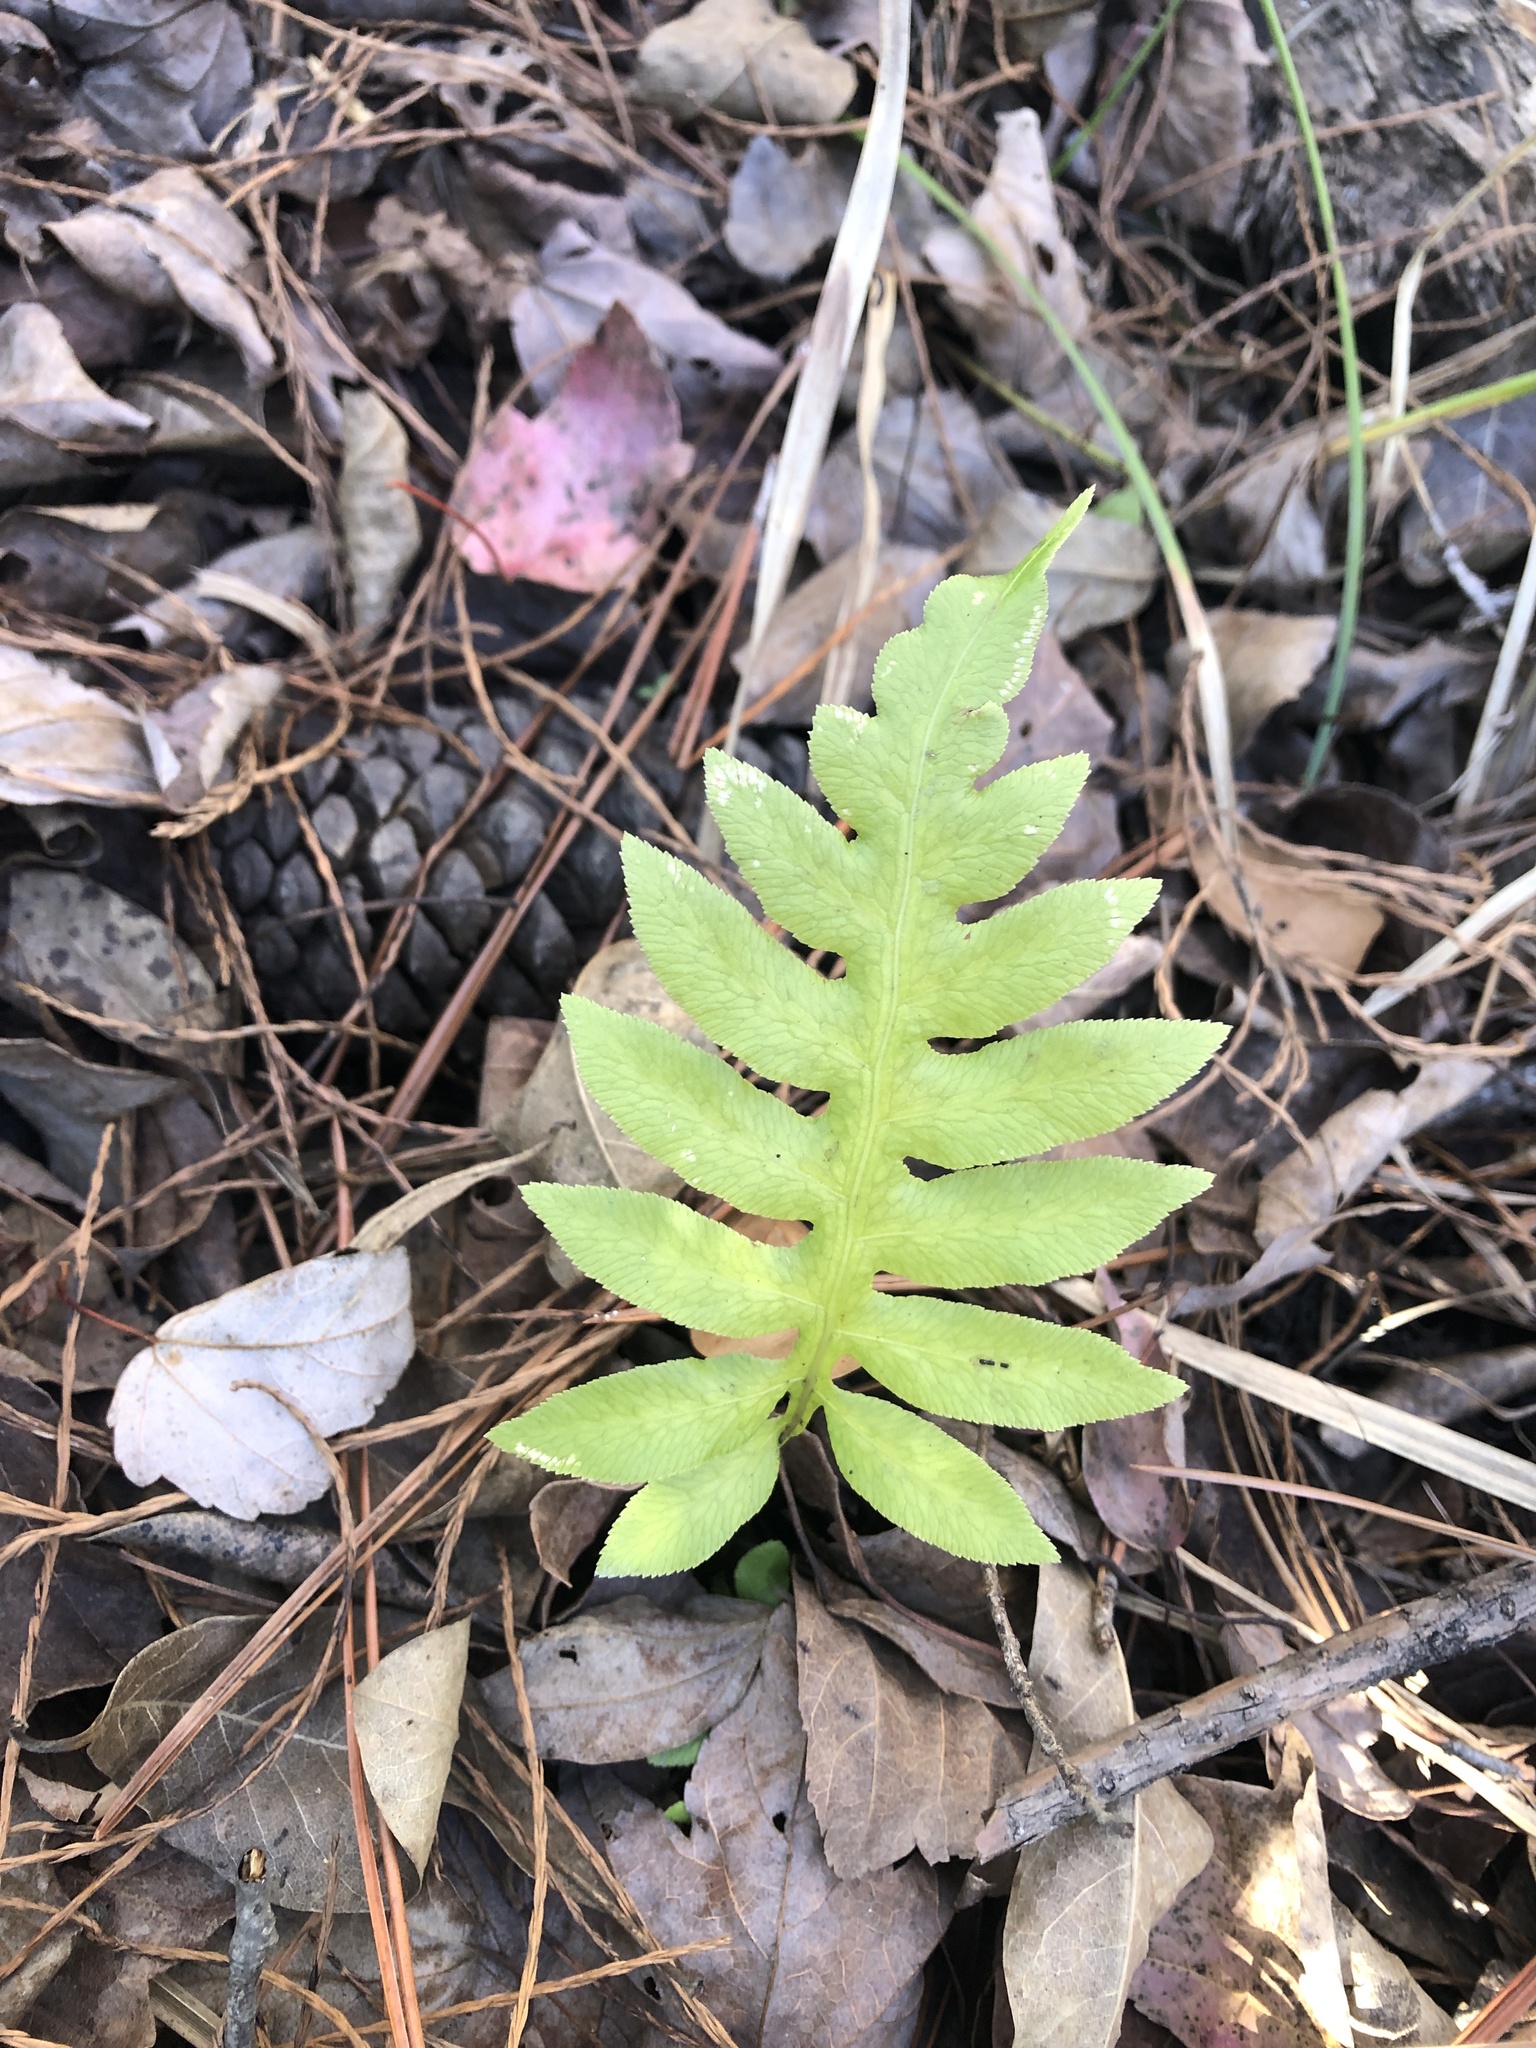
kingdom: Plantae
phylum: Tracheophyta
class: Polypodiopsida
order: Polypodiales
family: Blechnaceae
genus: Lorinseria
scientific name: Lorinseria areolata
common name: Dwarf chain fern
